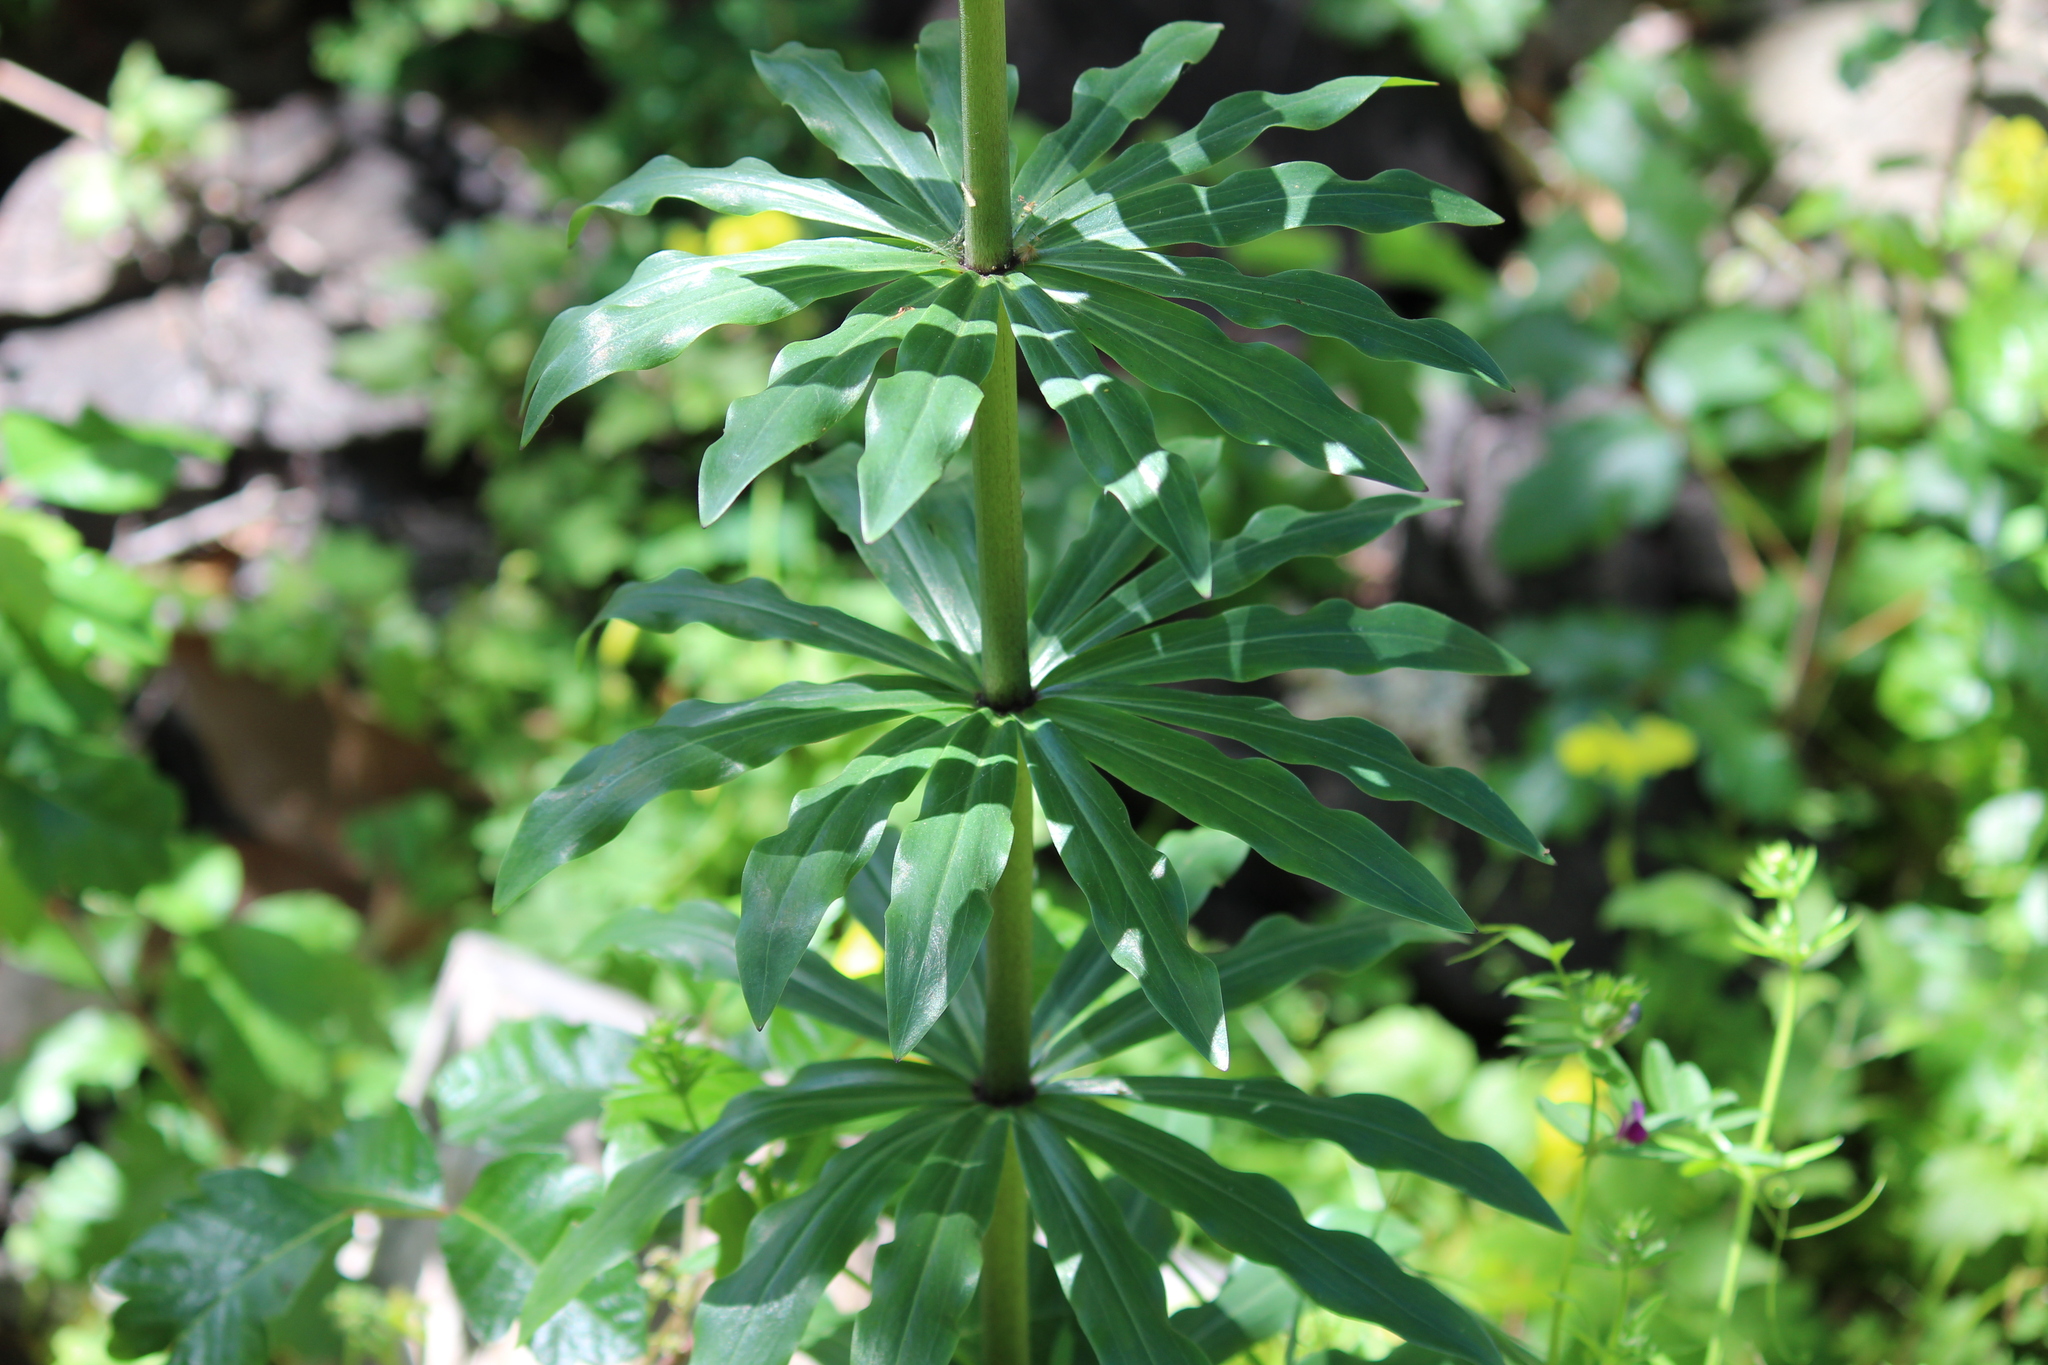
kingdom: Plantae
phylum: Tracheophyta
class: Liliopsida
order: Liliales
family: Liliaceae
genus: Lilium
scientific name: Lilium humboldtii
